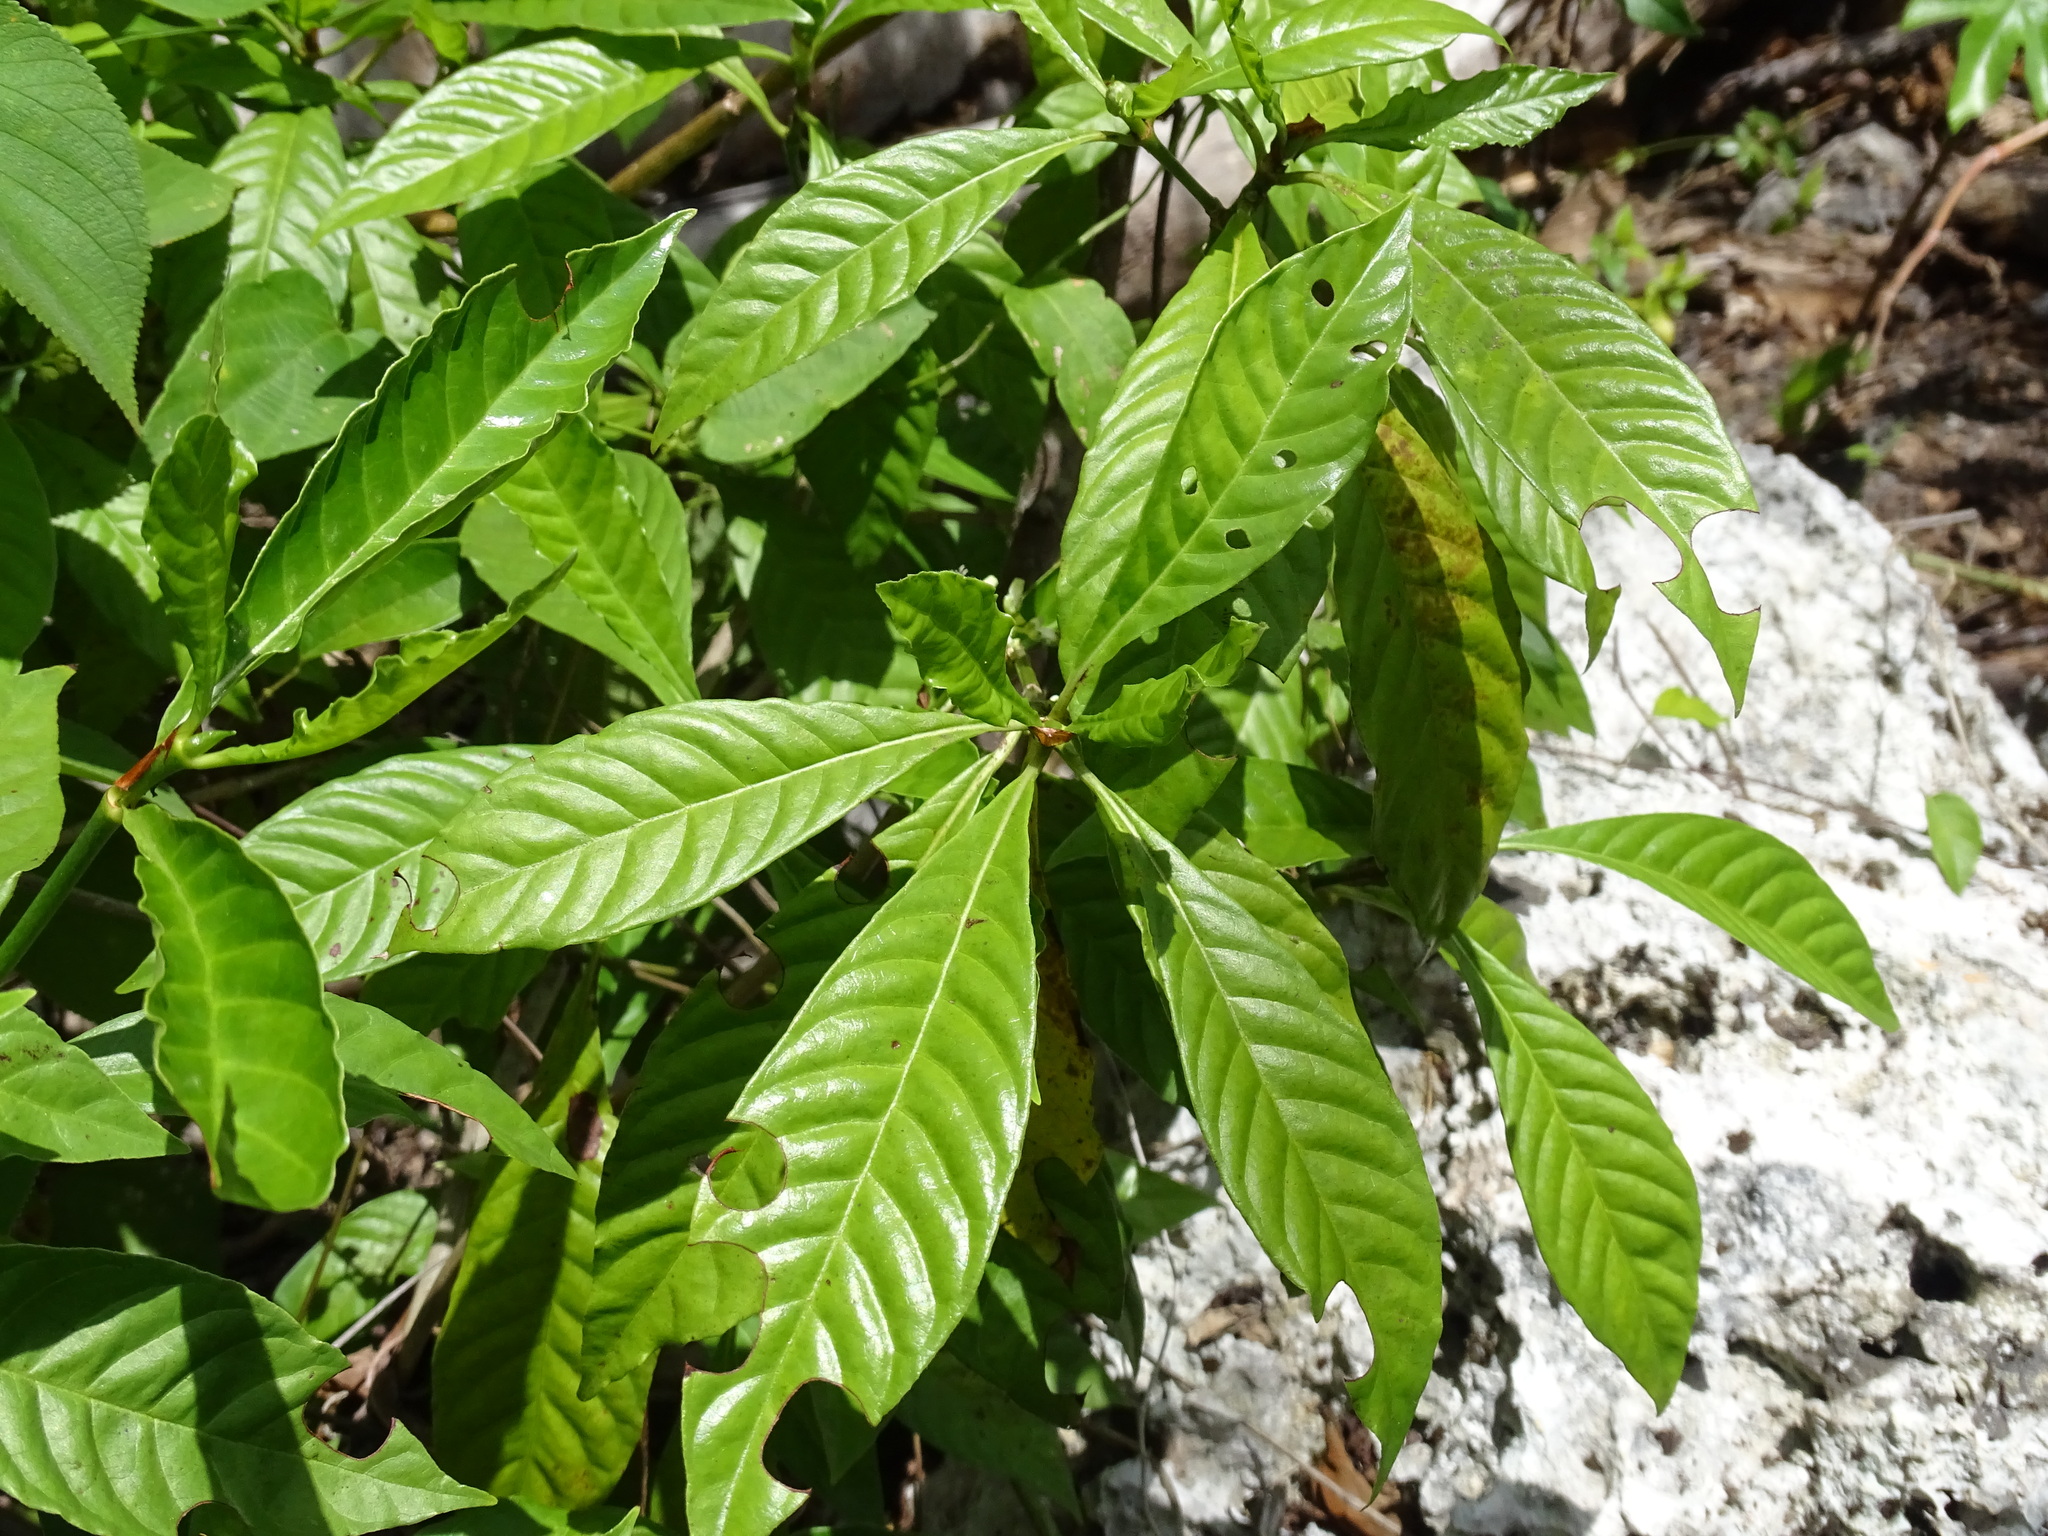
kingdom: Plantae
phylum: Tracheophyta
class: Magnoliopsida
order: Gentianales
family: Rubiaceae
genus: Psychotria
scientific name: Psychotria nervosa
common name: Bastard cankerberry
